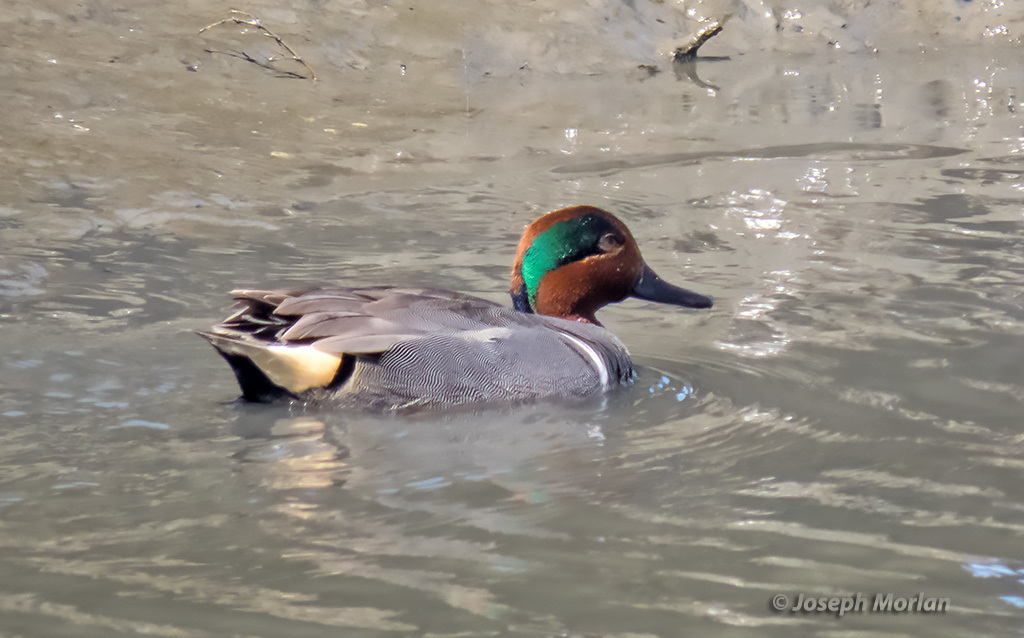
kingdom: Animalia
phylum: Chordata
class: Aves
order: Anseriformes
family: Anatidae
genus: Anas
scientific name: Anas crecca
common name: Eurasian teal
